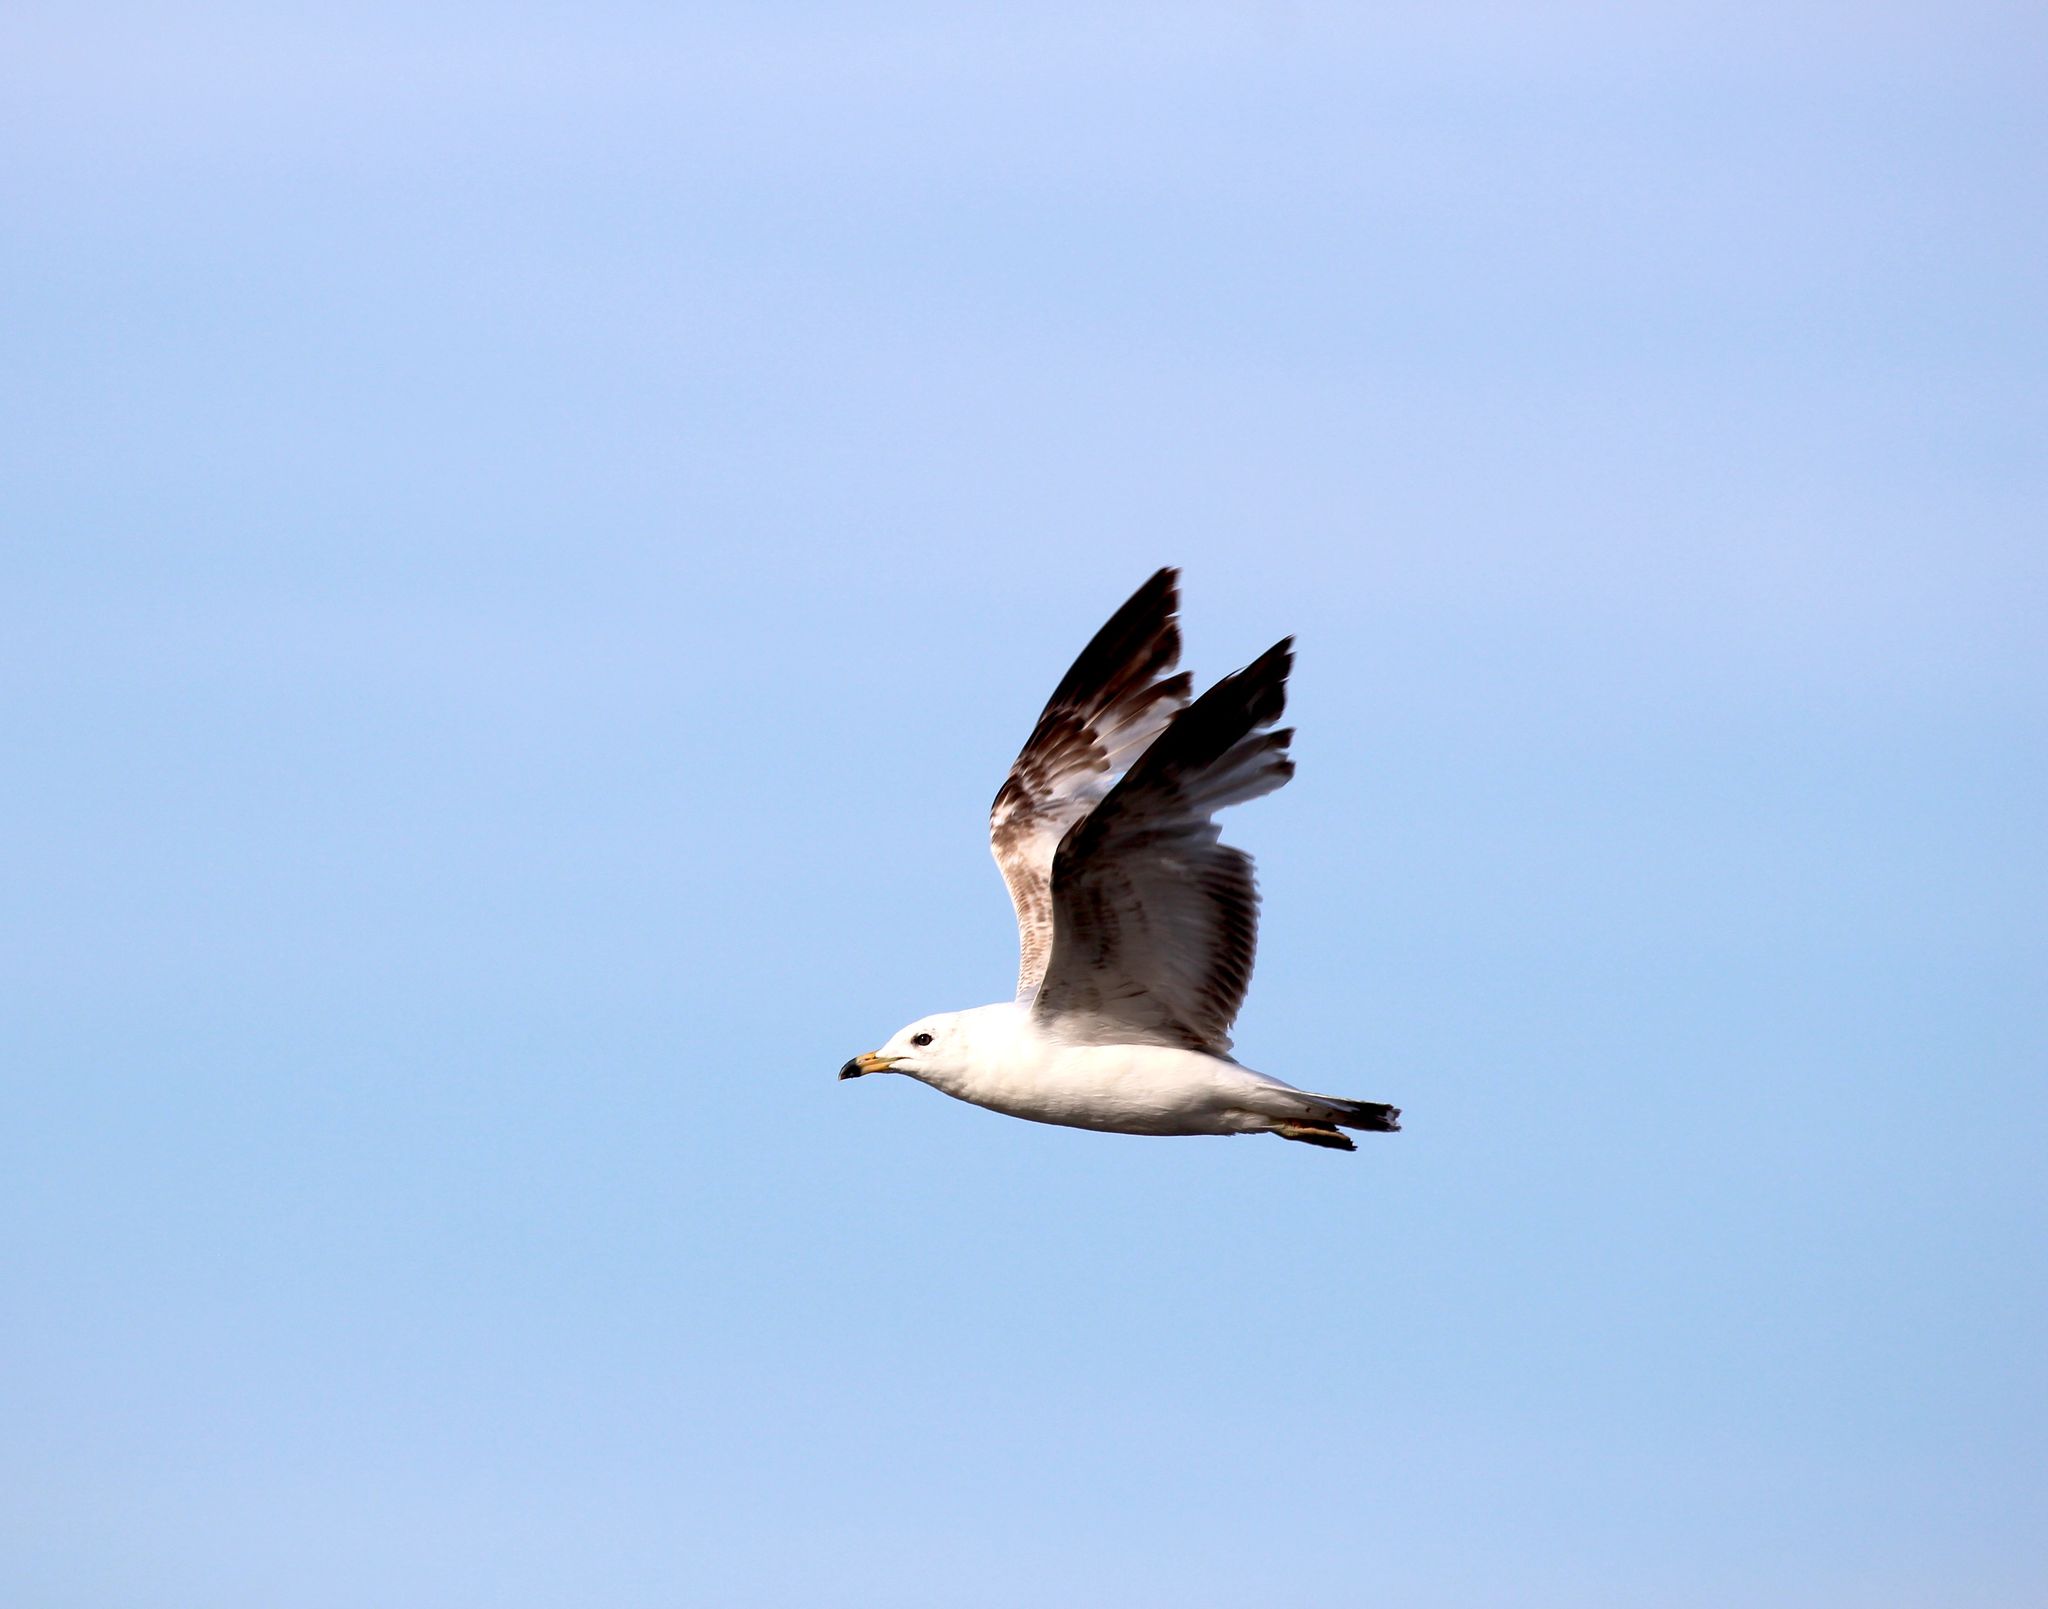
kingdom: Animalia
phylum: Chordata
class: Aves
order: Charadriiformes
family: Laridae
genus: Larus
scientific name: Larus delawarensis
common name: Ring-billed gull
